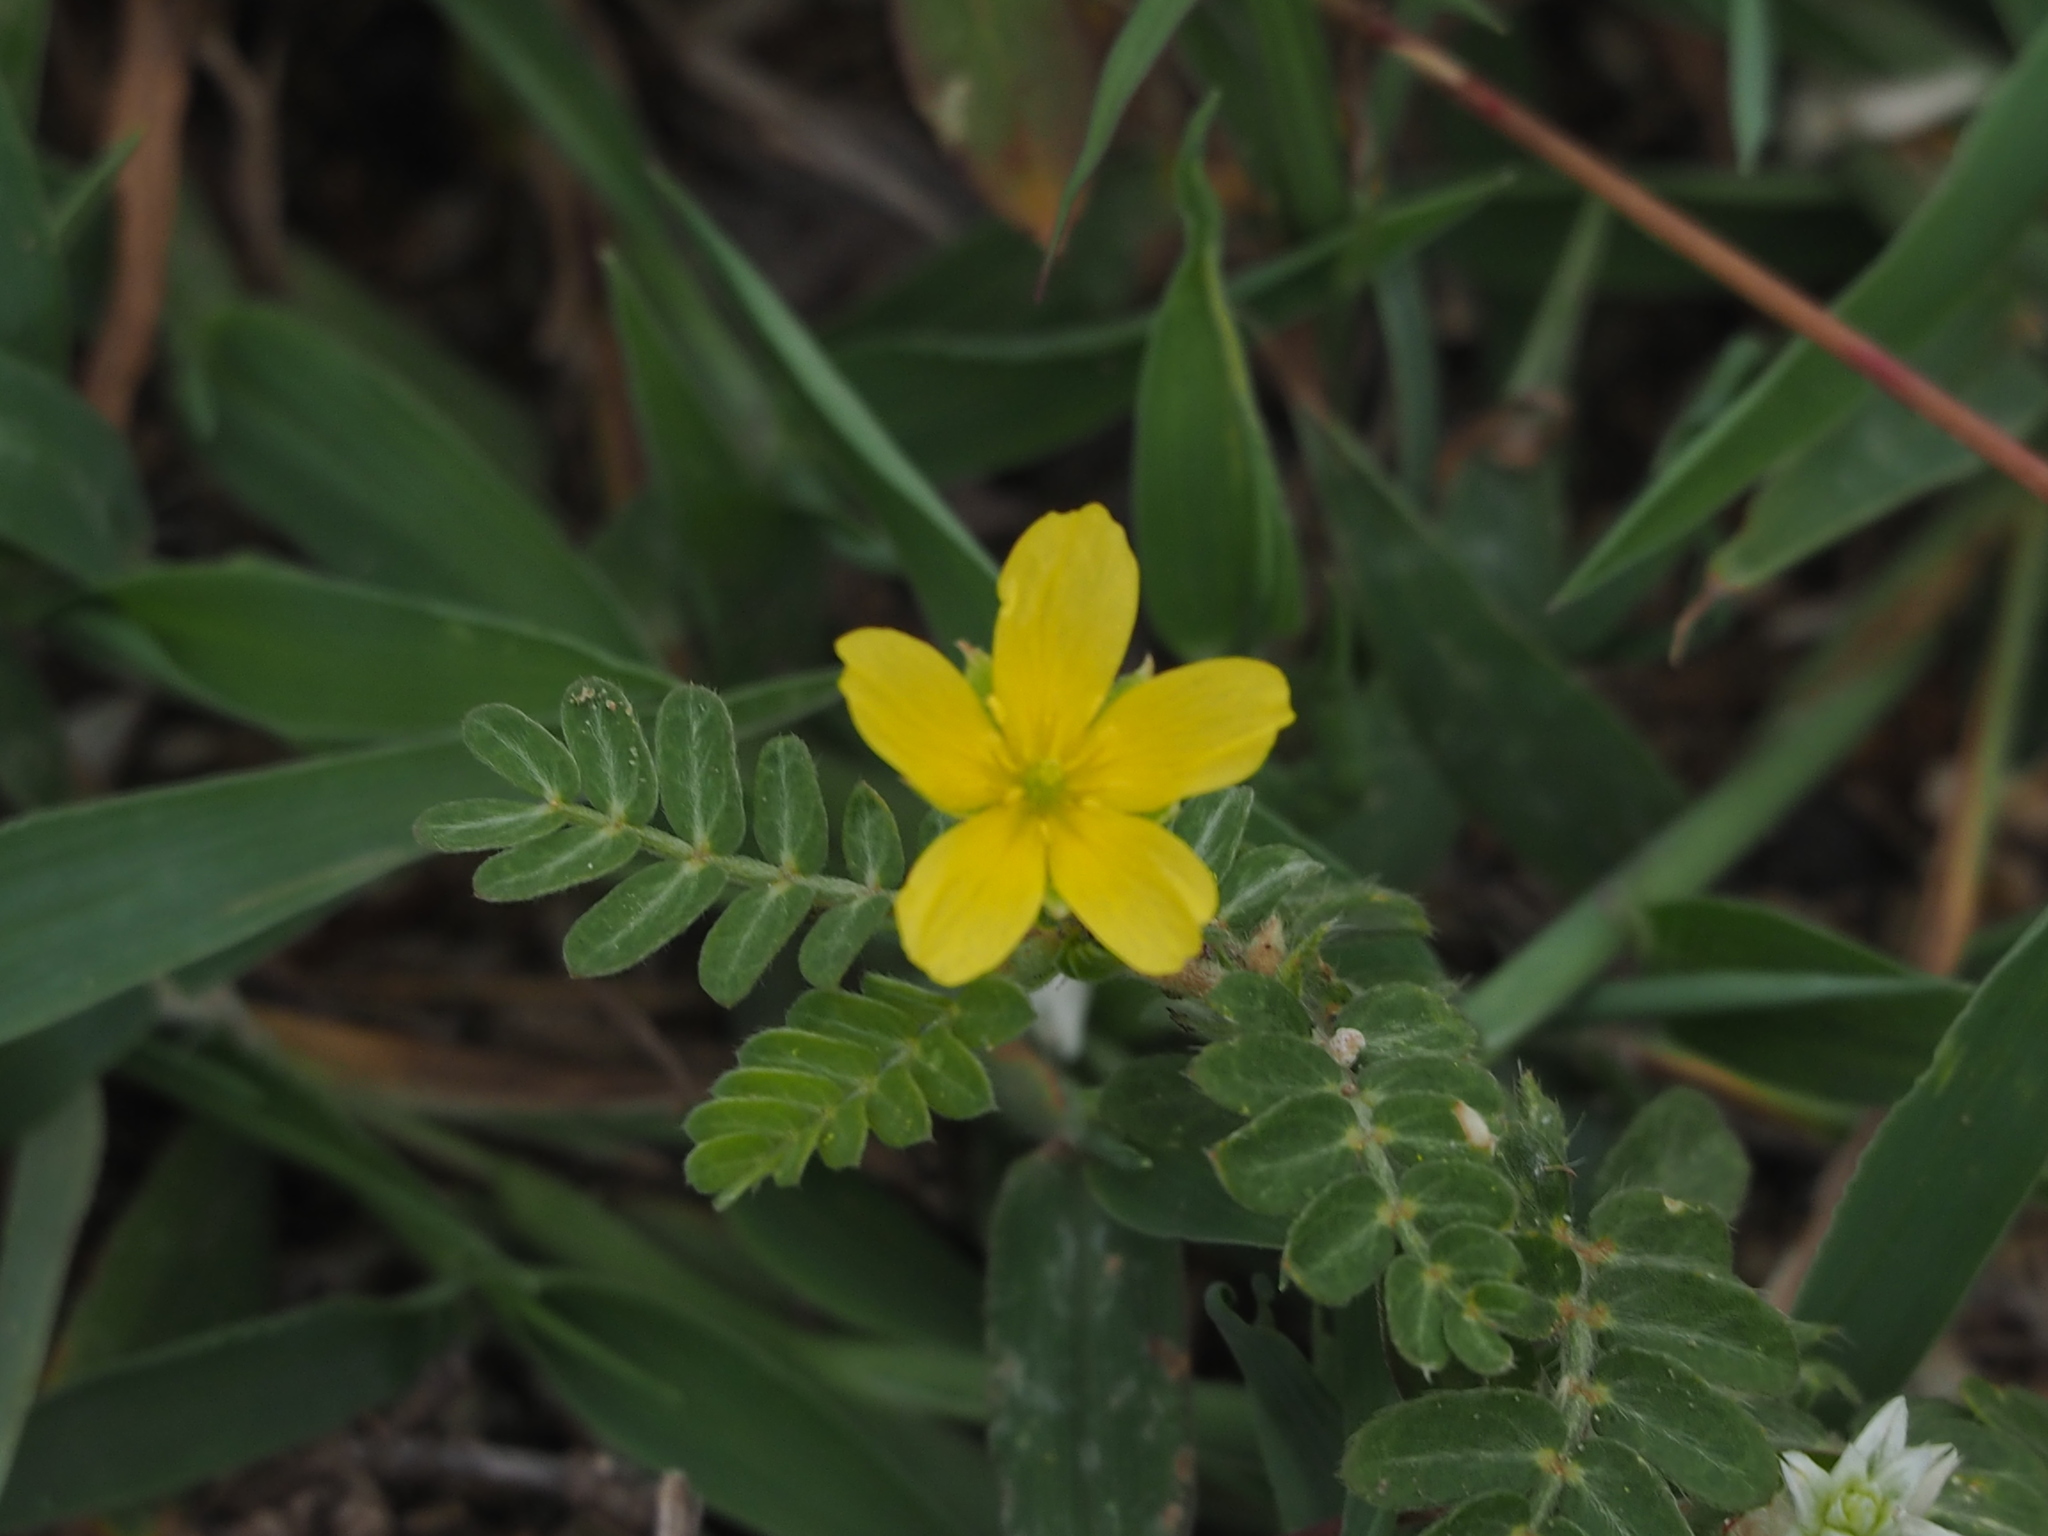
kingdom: Plantae
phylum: Tracheophyta
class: Magnoliopsida
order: Zygophyllales
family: Zygophyllaceae
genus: Tribulus
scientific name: Tribulus cistoides
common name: Jamaican feverplant
